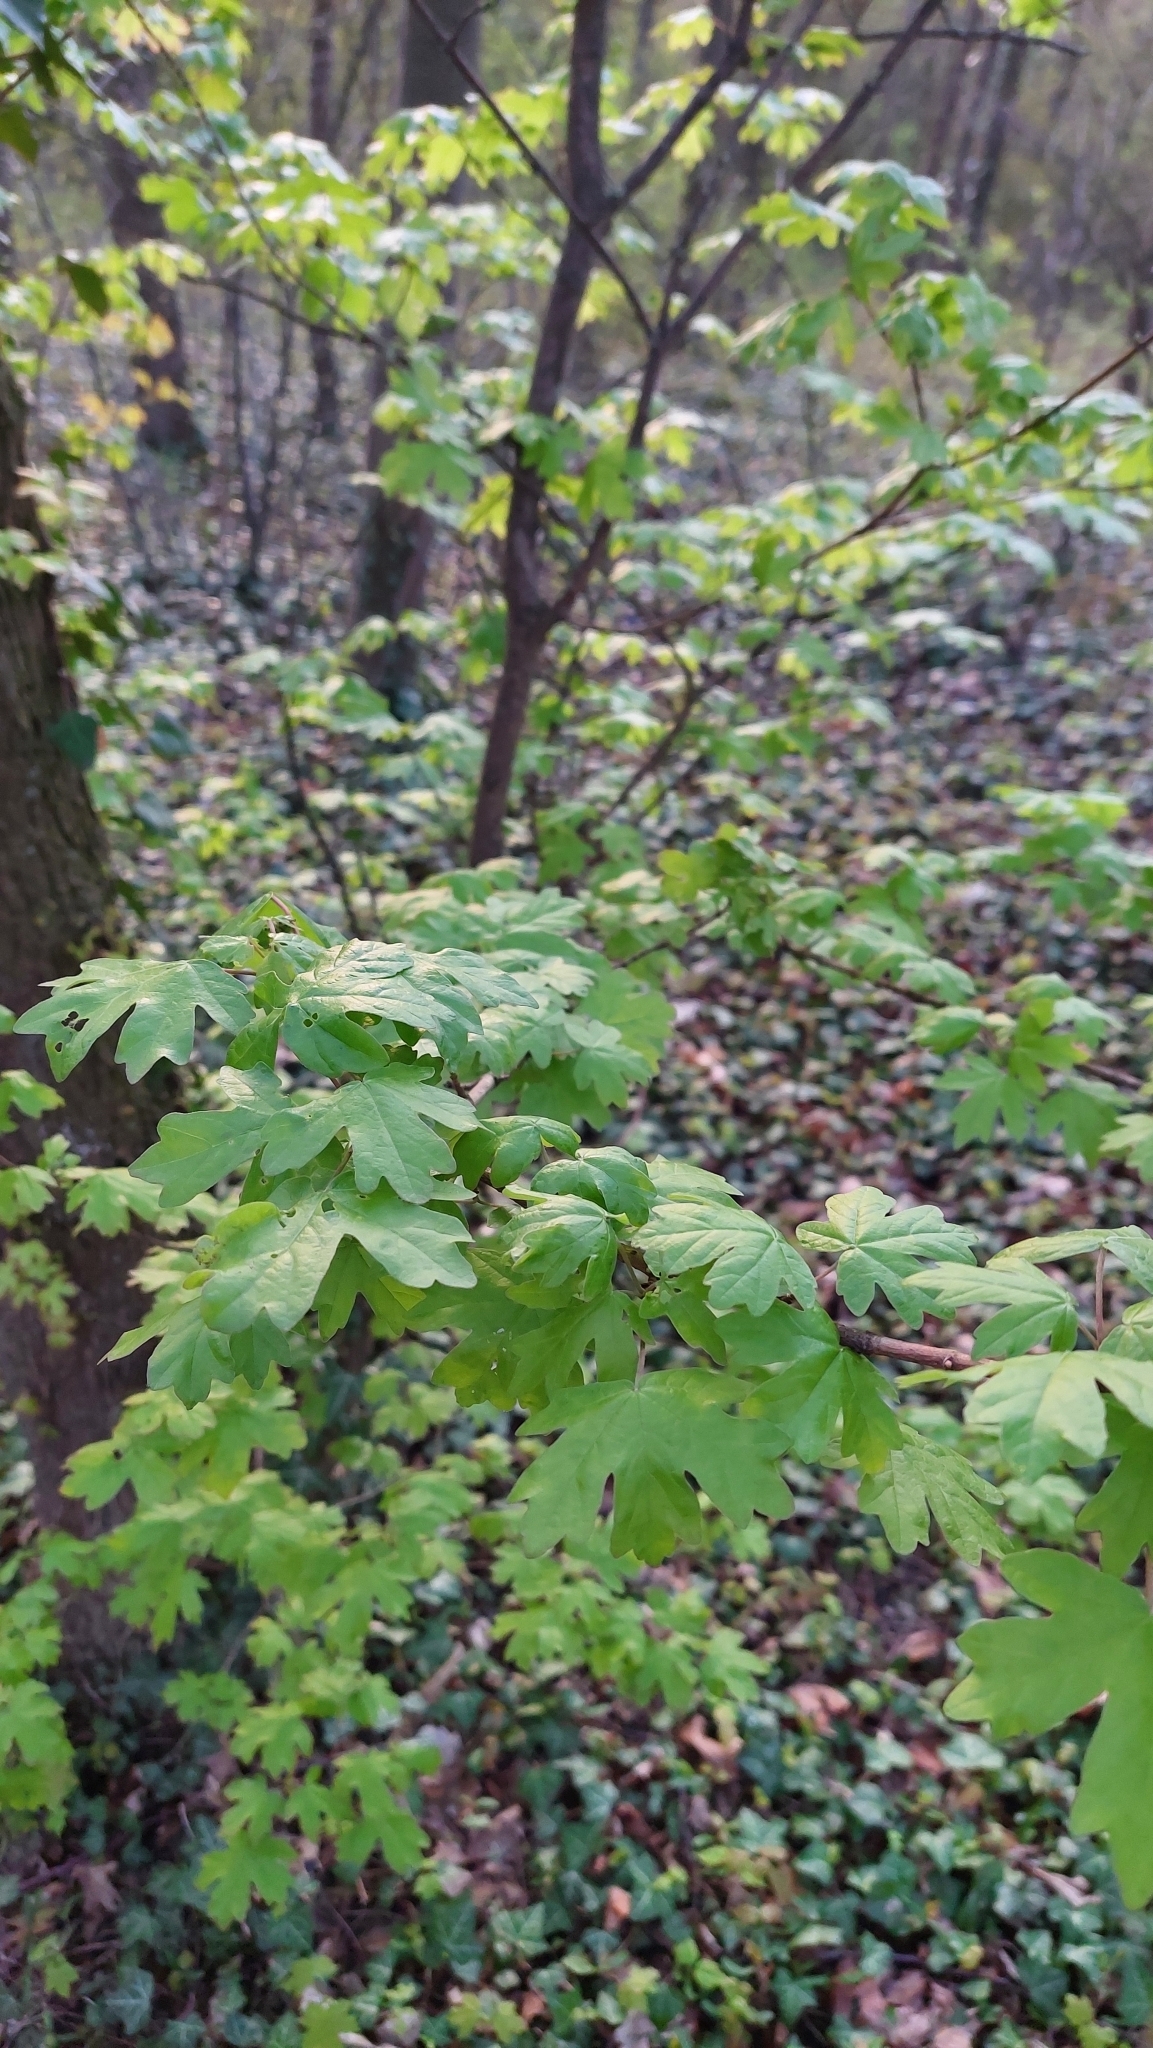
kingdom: Plantae
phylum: Tracheophyta
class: Magnoliopsida
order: Sapindales
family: Sapindaceae
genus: Acer
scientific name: Acer campestre
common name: Field maple
